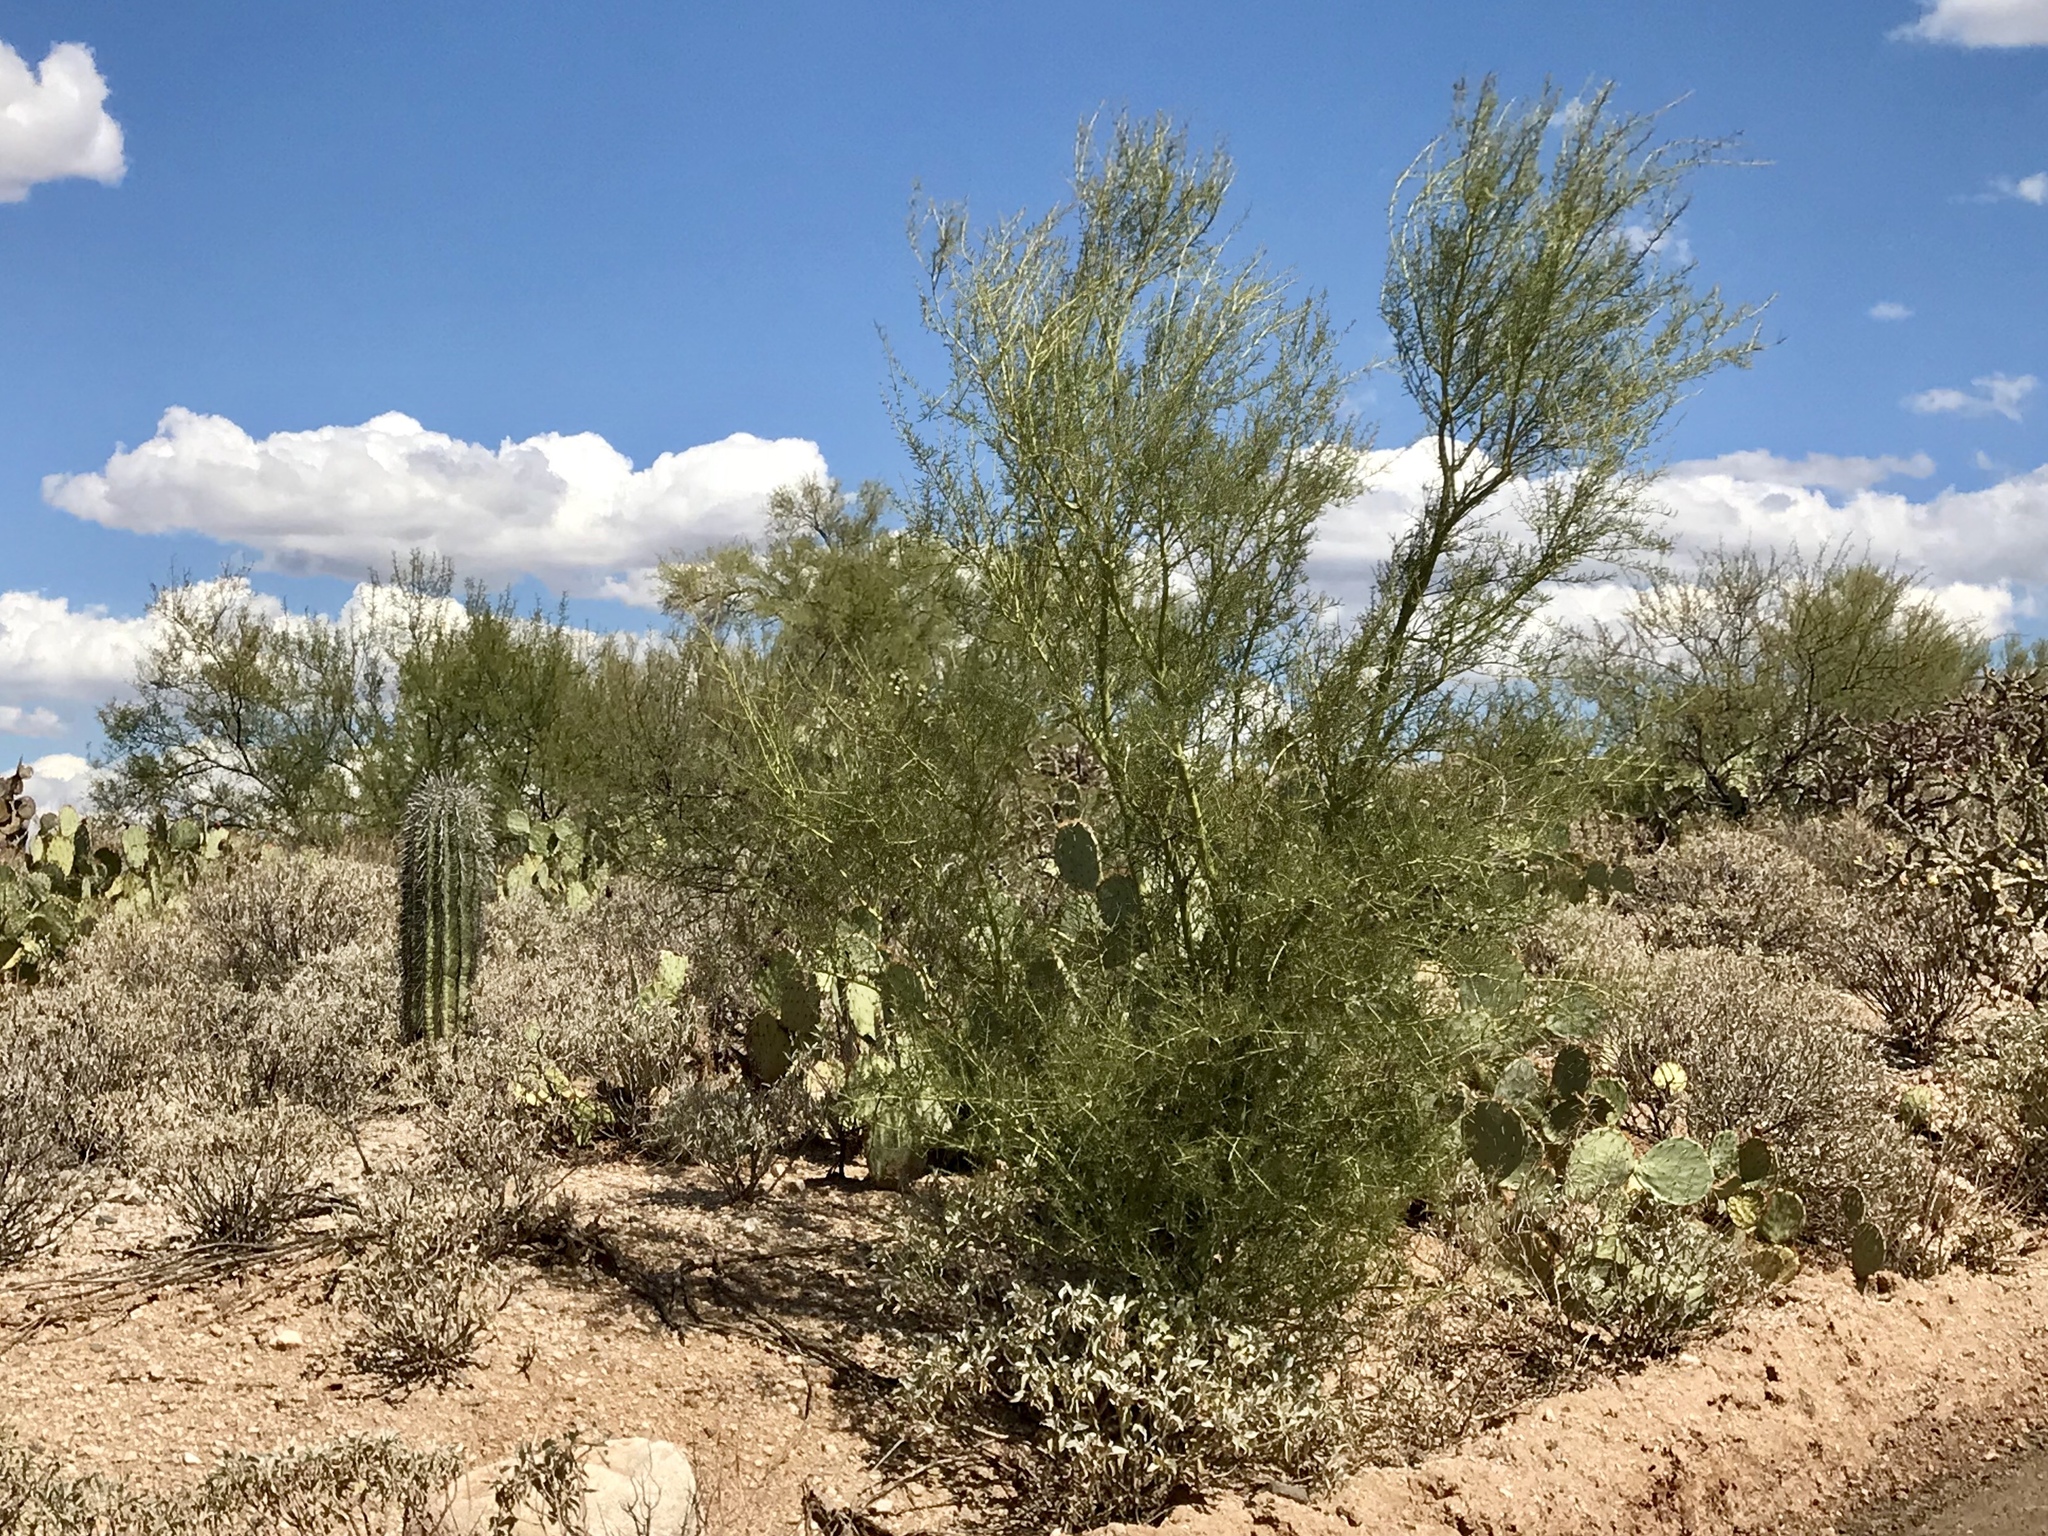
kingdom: Plantae
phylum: Tracheophyta
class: Magnoliopsida
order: Fabales
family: Fabaceae
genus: Parkinsonia
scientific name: Parkinsonia microphylla
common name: Yellow paloverde
